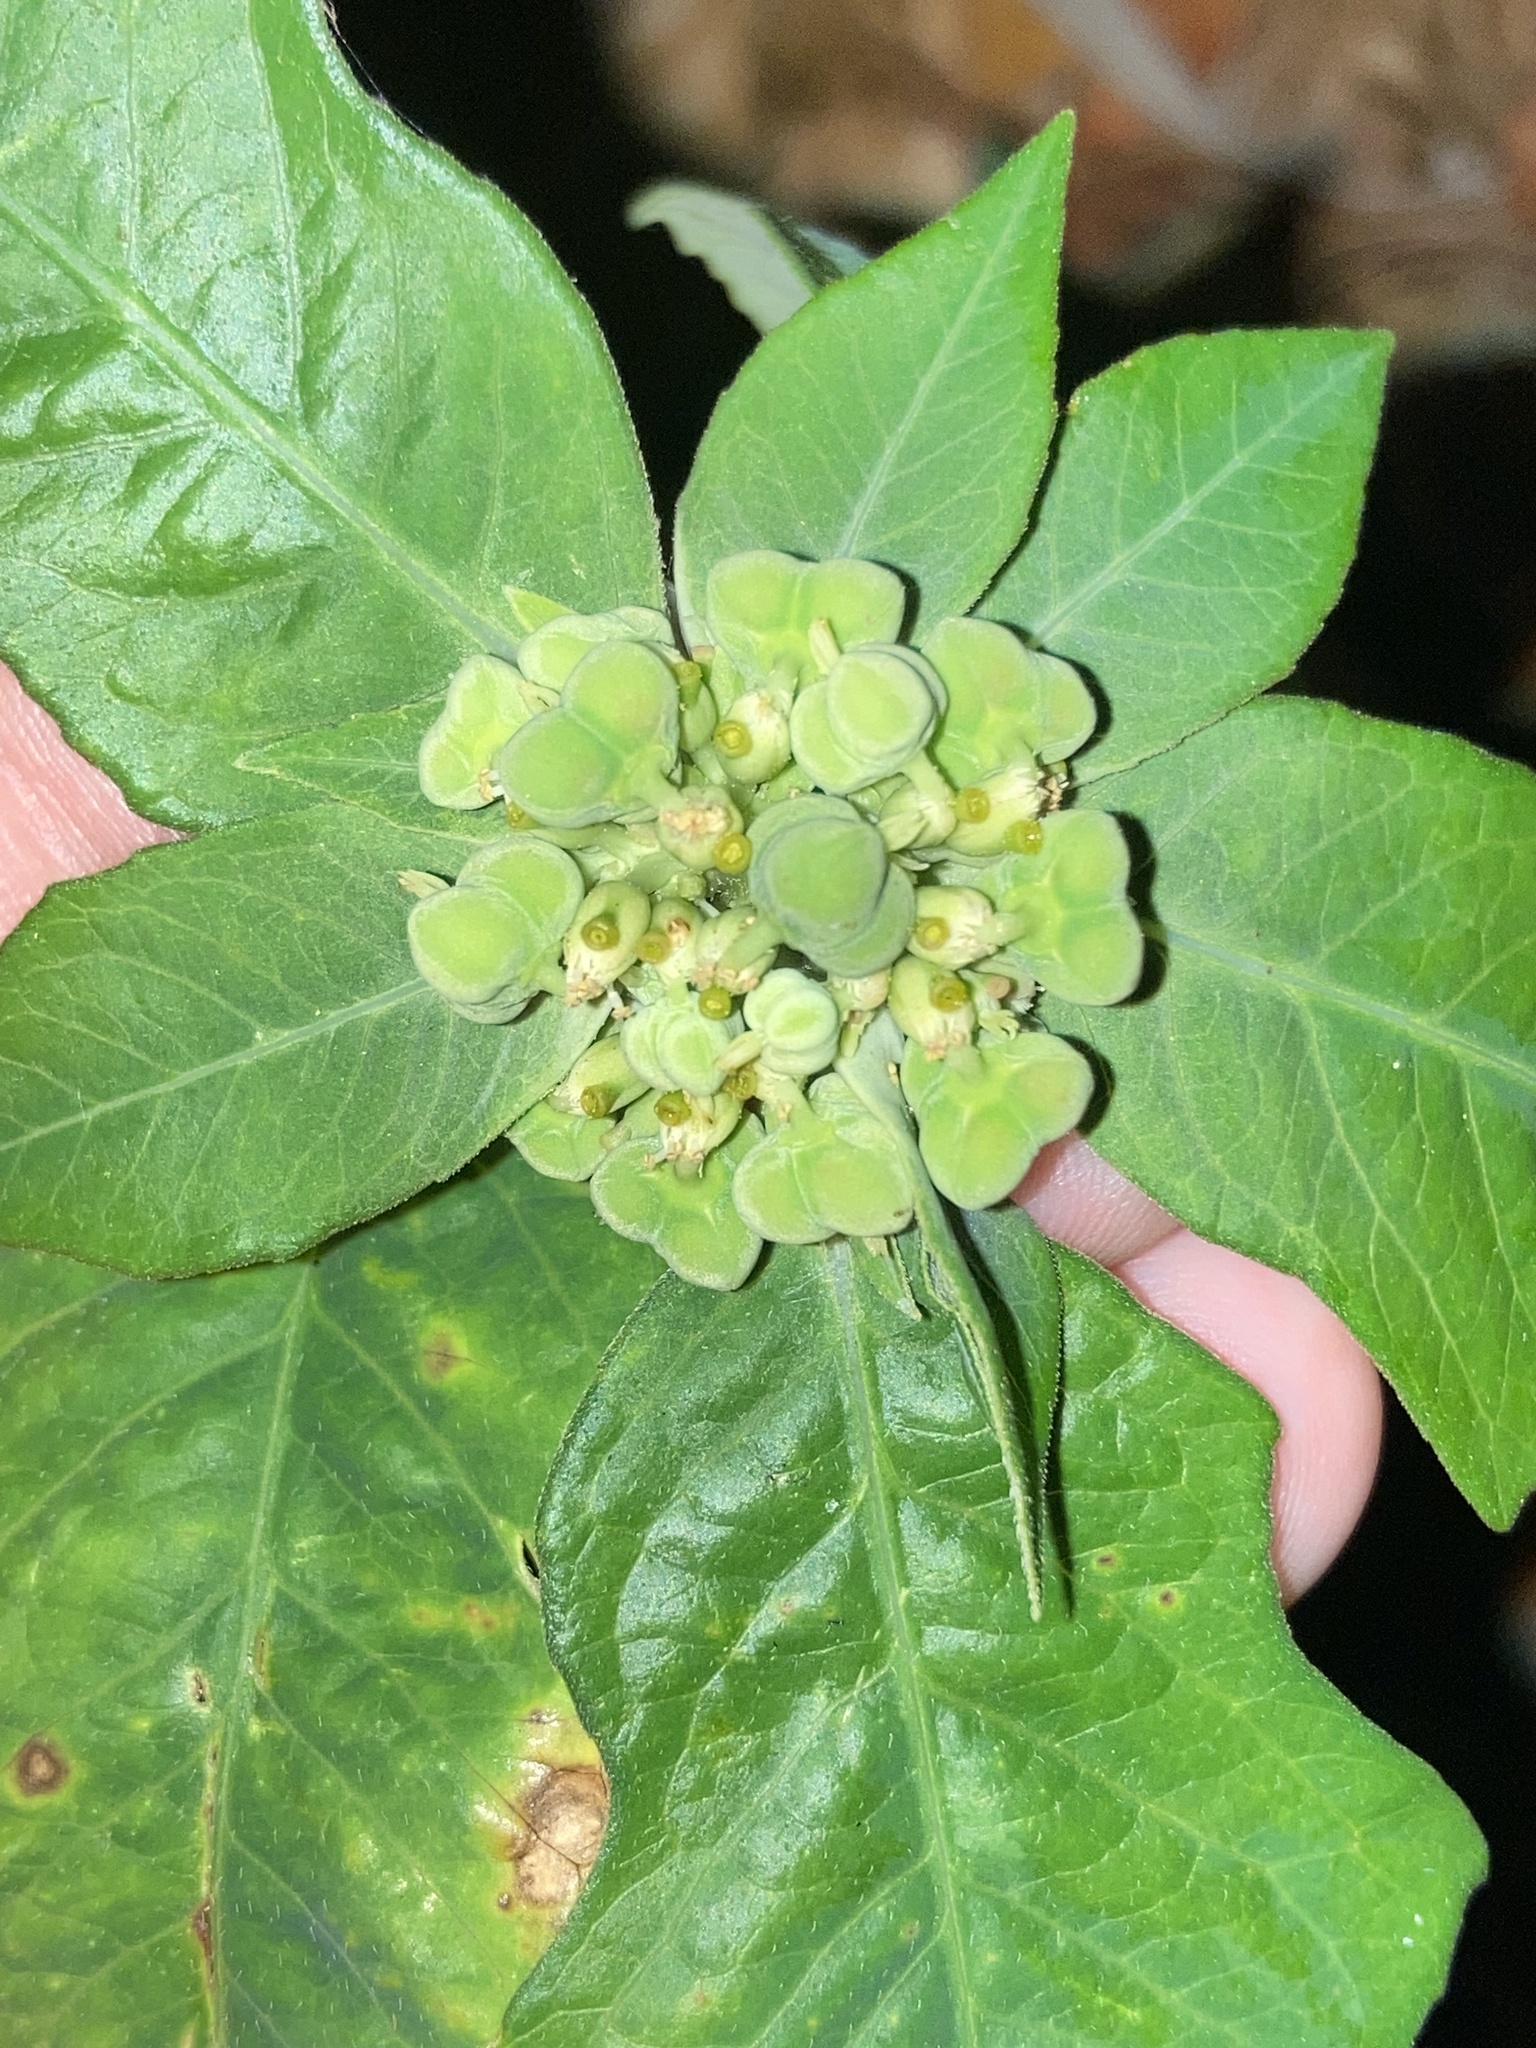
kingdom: Plantae
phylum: Tracheophyta
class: Magnoliopsida
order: Malpighiales
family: Euphorbiaceae
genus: Euphorbia
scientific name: Euphorbia heterophylla
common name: Mexican fireplant
